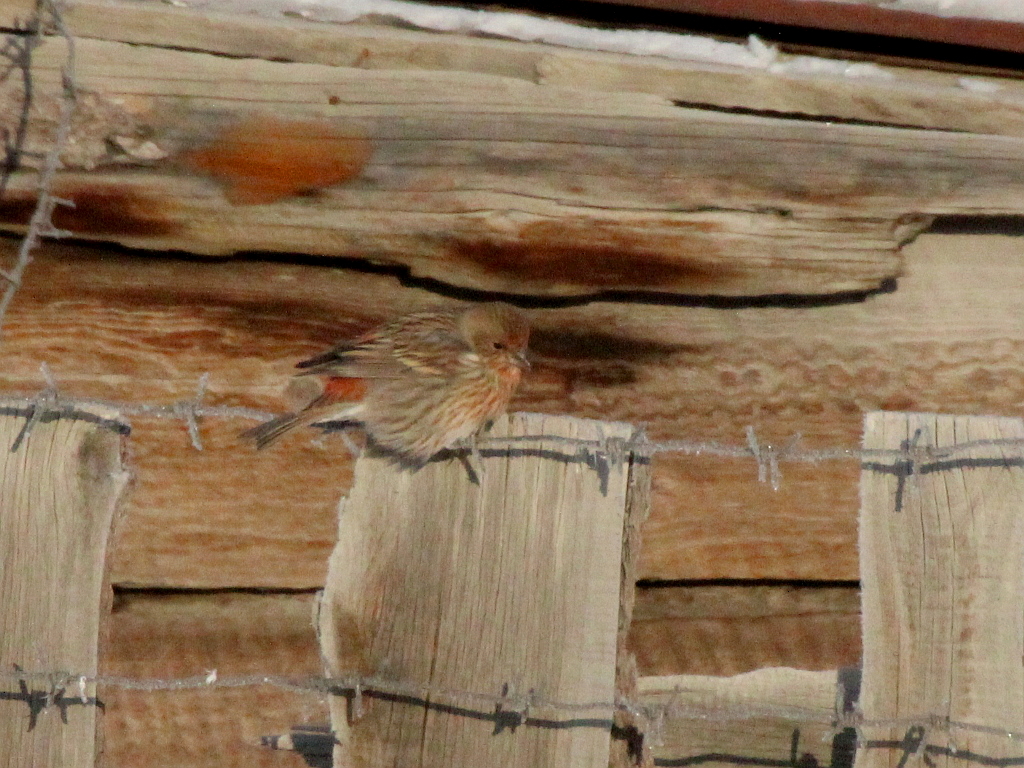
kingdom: Animalia
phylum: Chordata
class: Aves
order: Passeriformes
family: Fringillidae
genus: Carpodacus
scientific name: Carpodacus roseus
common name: Pallas's rosefinch
